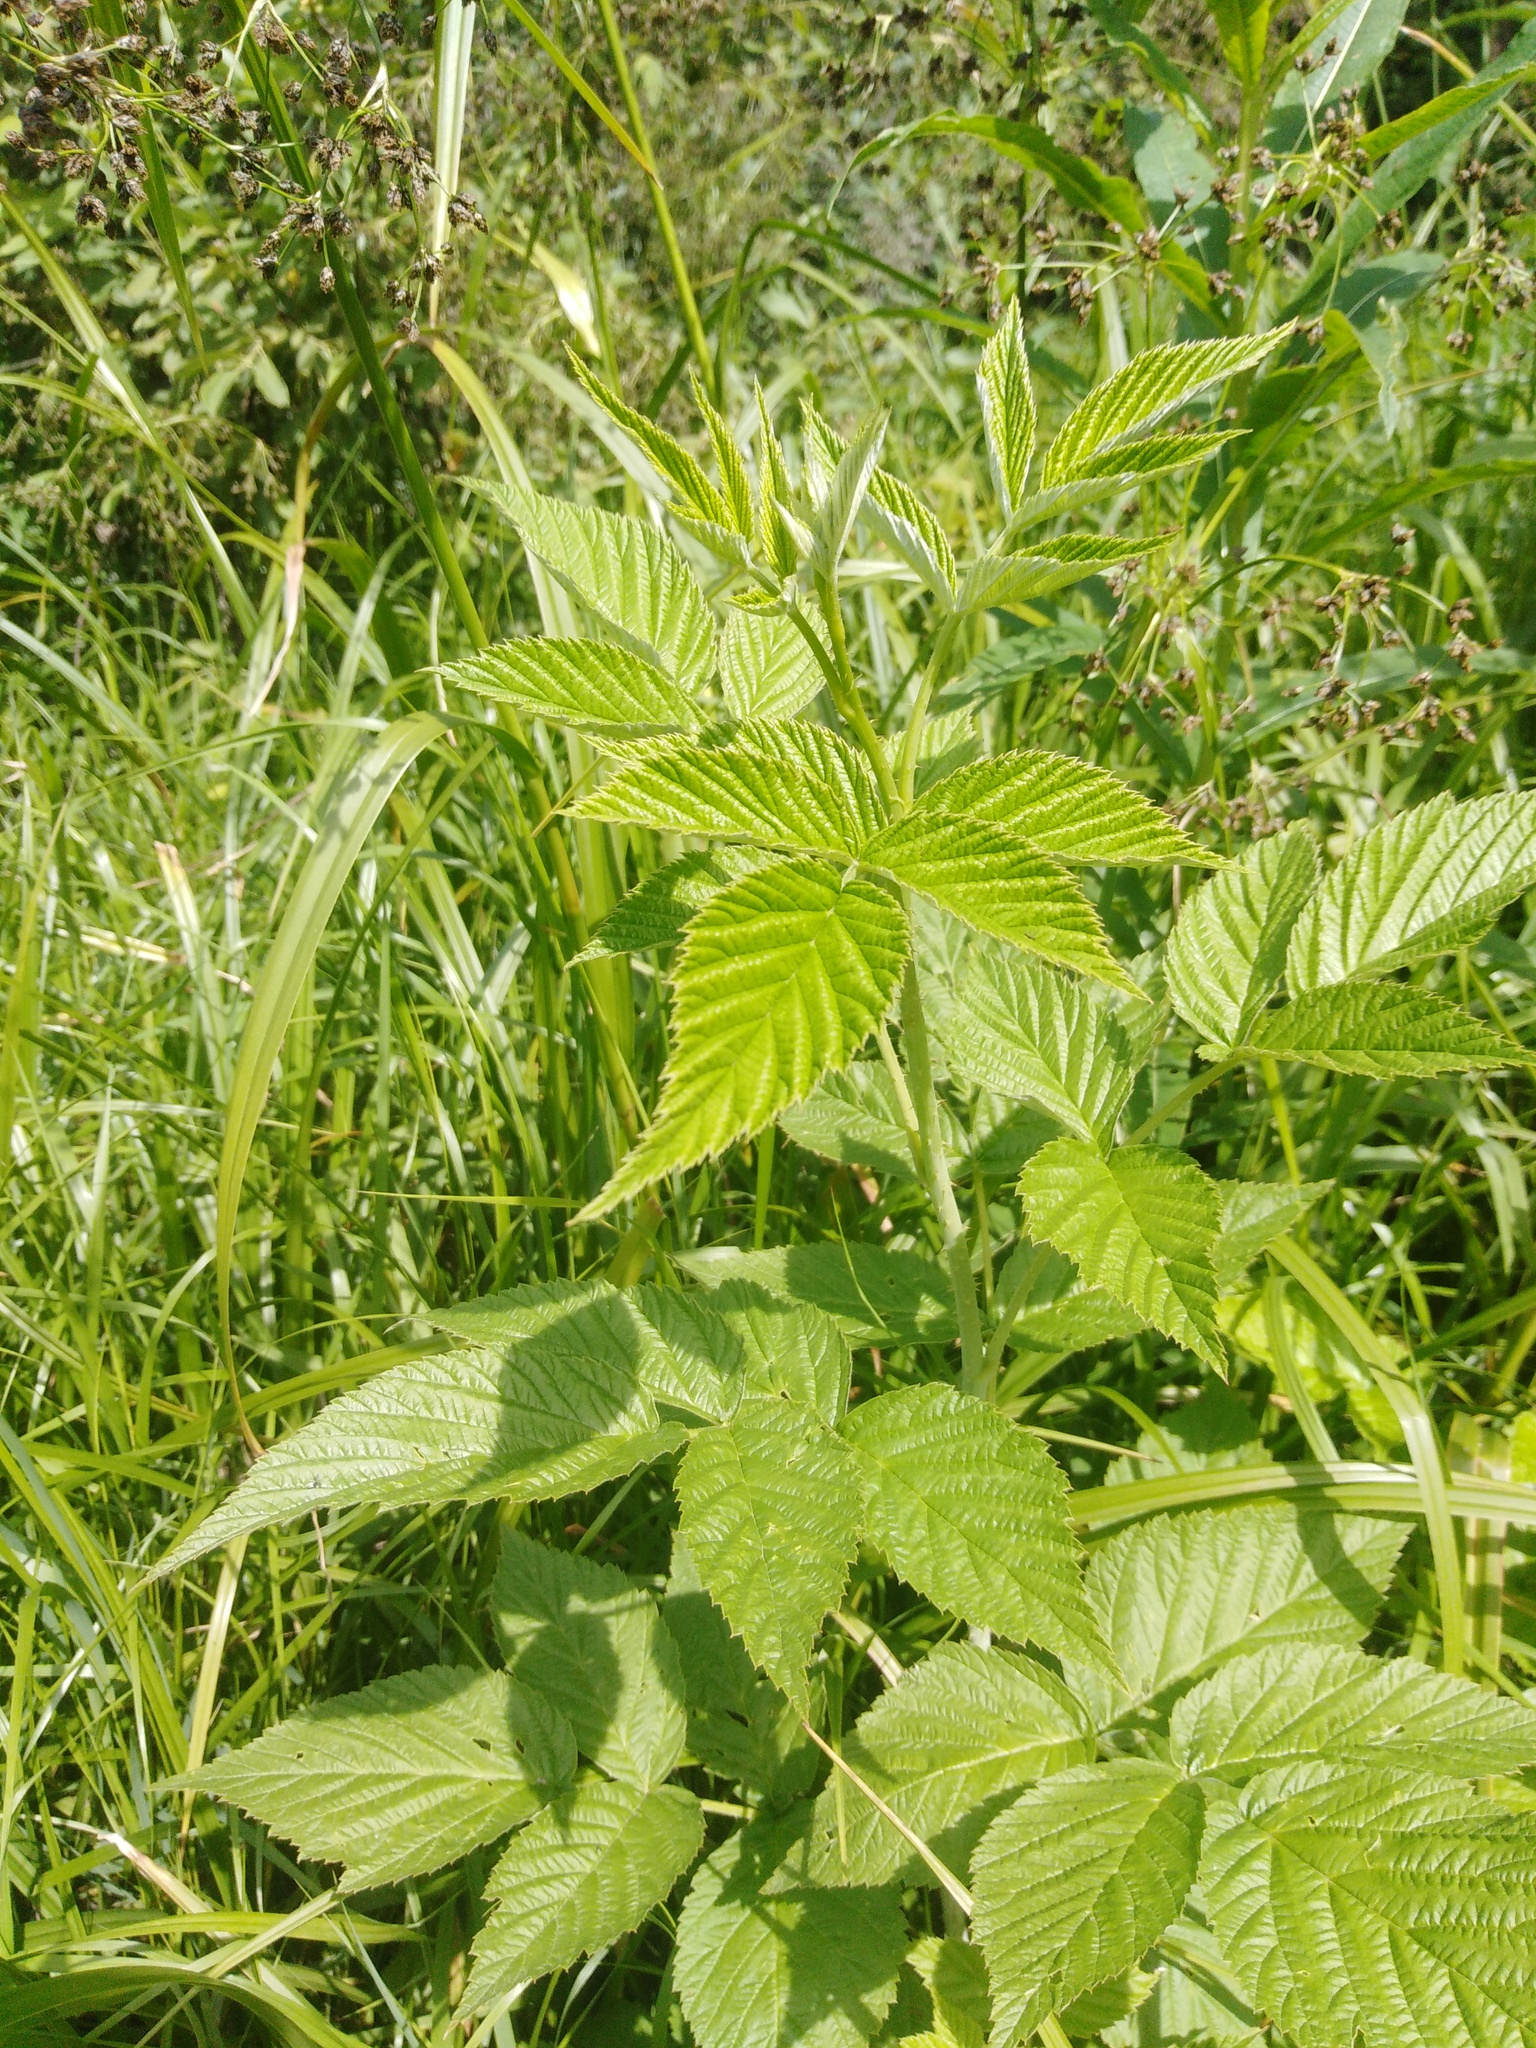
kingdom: Plantae
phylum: Tracheophyta
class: Magnoliopsida
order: Rosales
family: Rosaceae
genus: Rubus
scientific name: Rubus idaeus
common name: Raspberry
